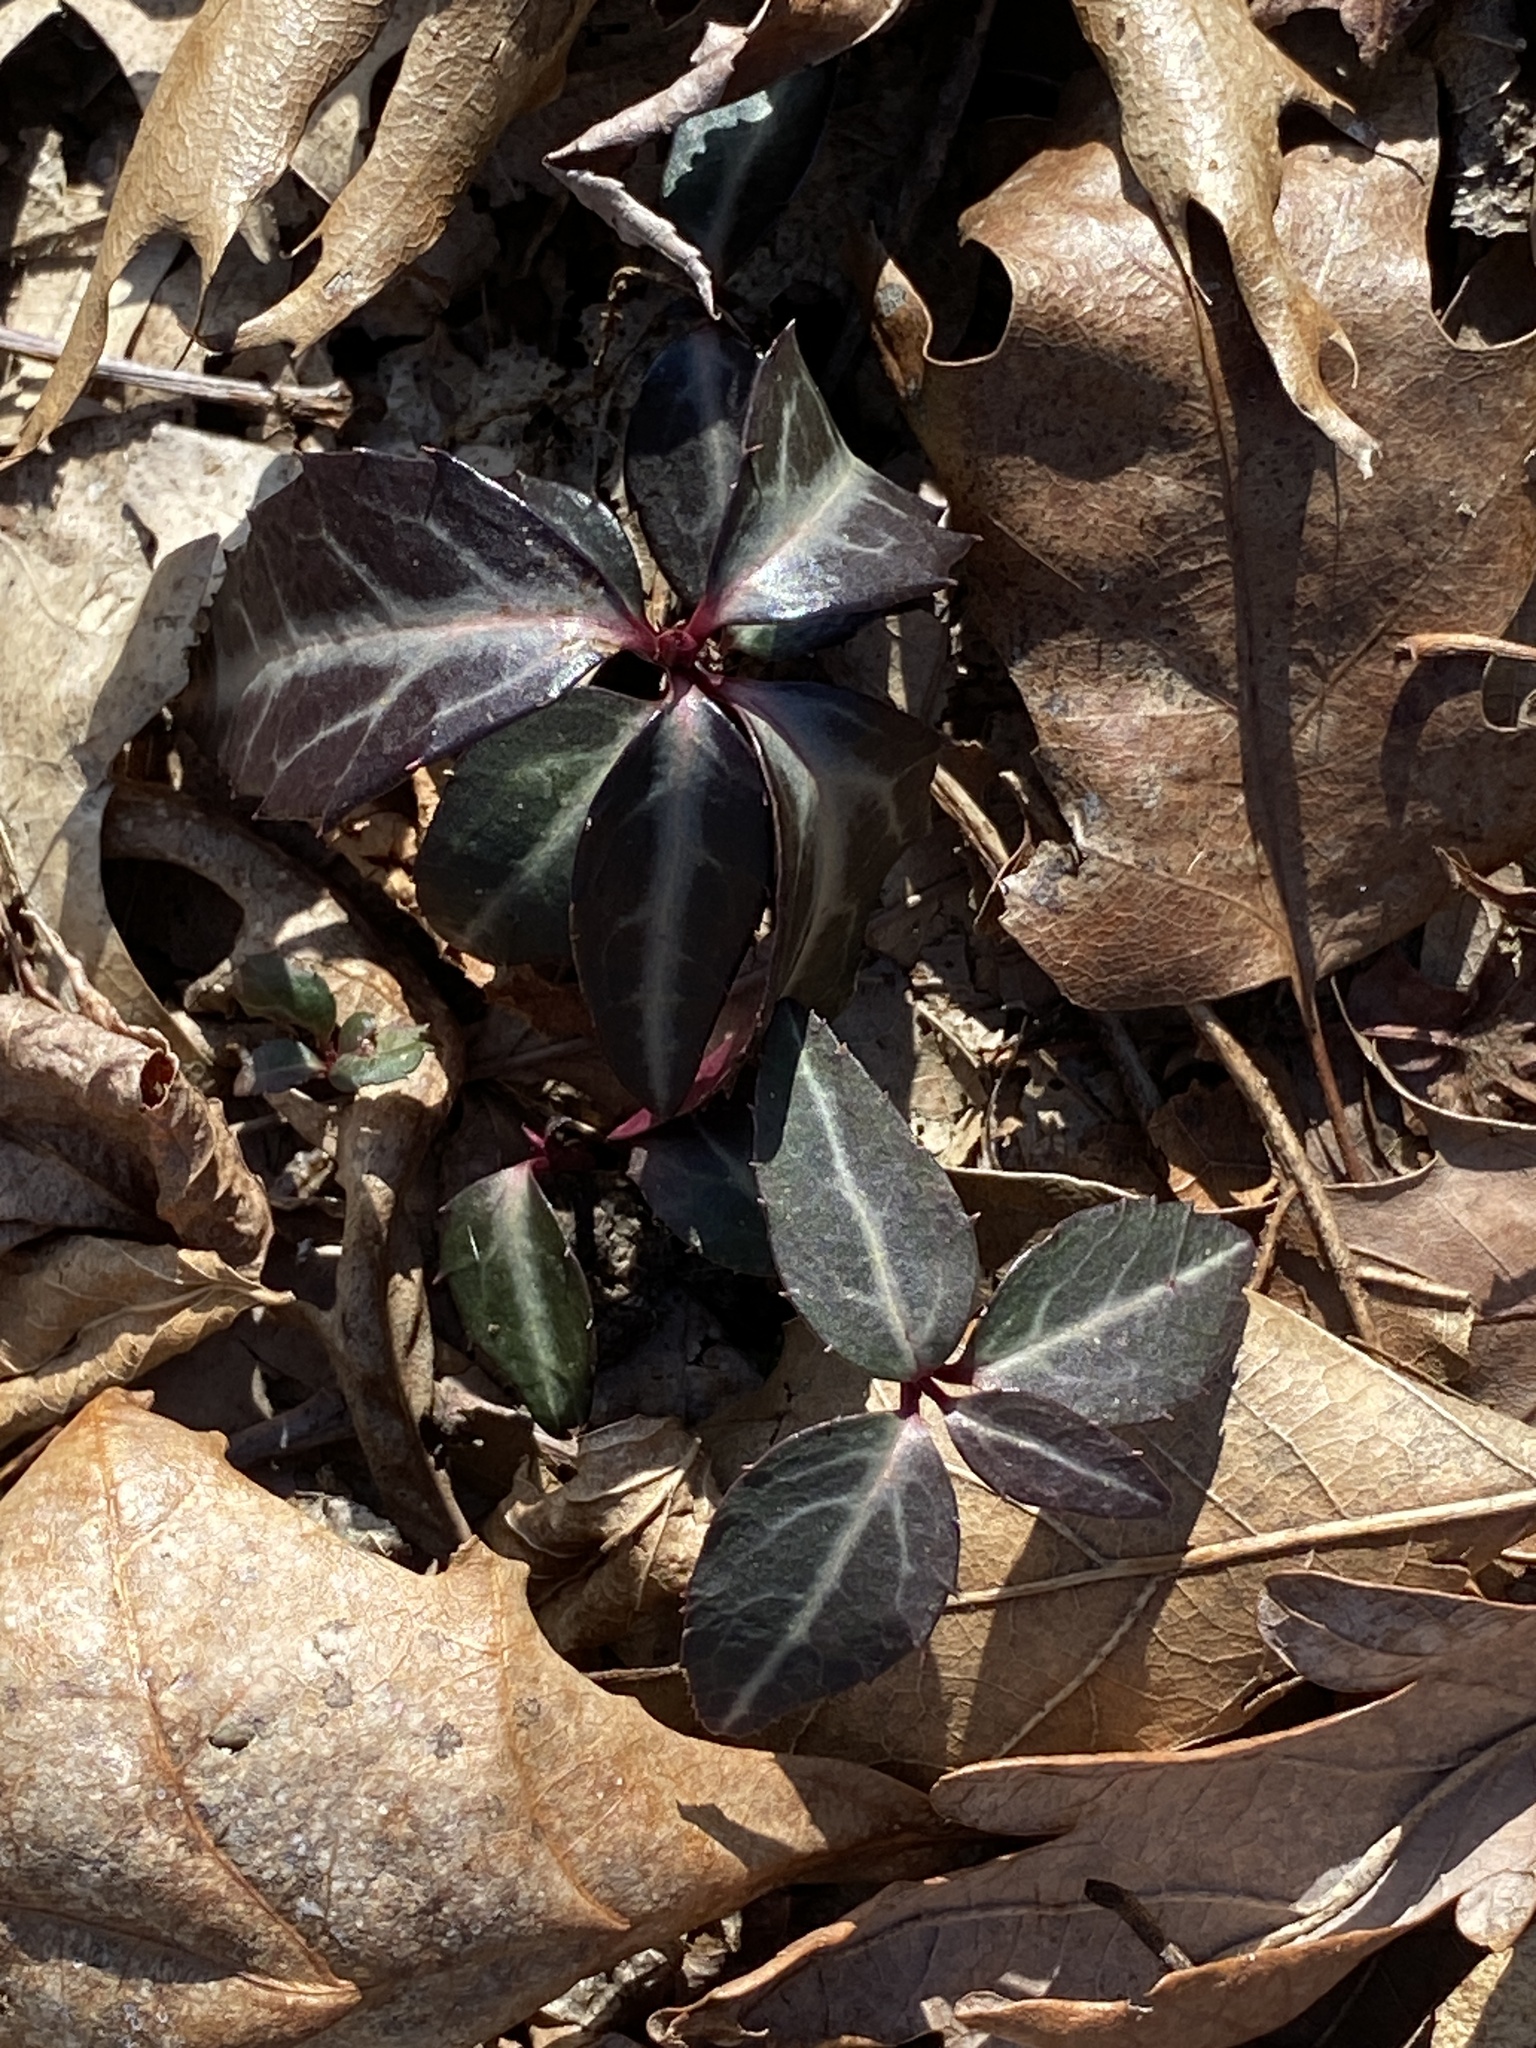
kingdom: Plantae
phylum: Tracheophyta
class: Magnoliopsida
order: Ericales
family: Ericaceae
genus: Chimaphila
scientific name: Chimaphila maculata
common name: Spotted pipsissewa
